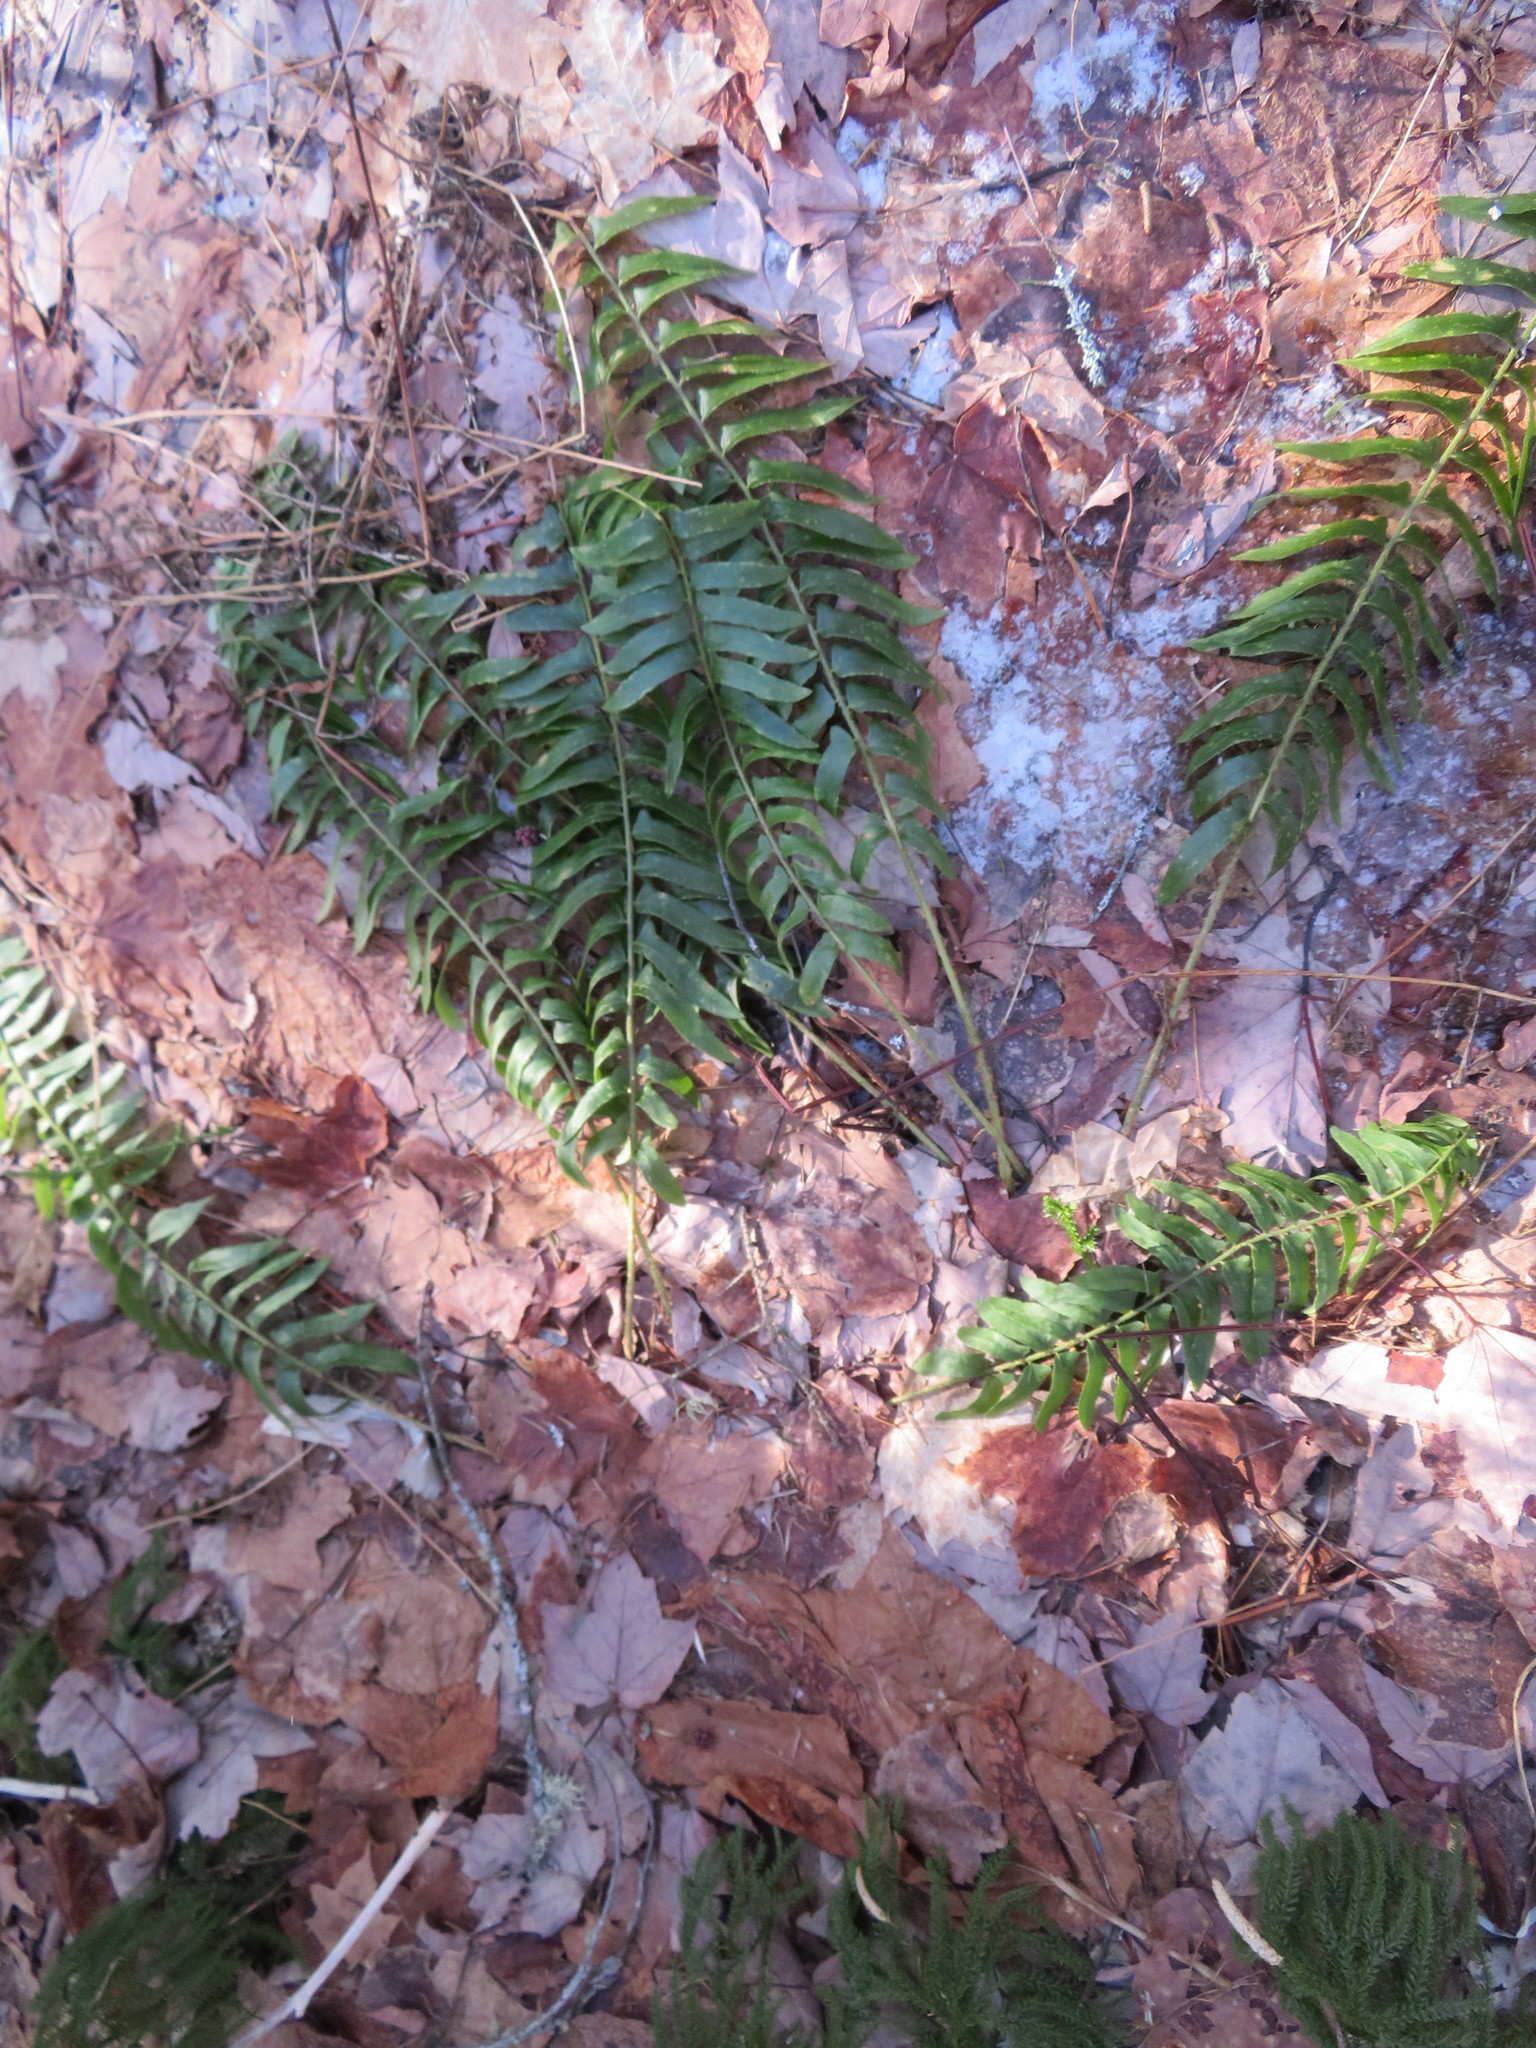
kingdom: Plantae
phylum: Tracheophyta
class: Polypodiopsida
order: Polypodiales
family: Dryopteridaceae
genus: Polystichum
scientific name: Polystichum acrostichoides
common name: Christmas fern
